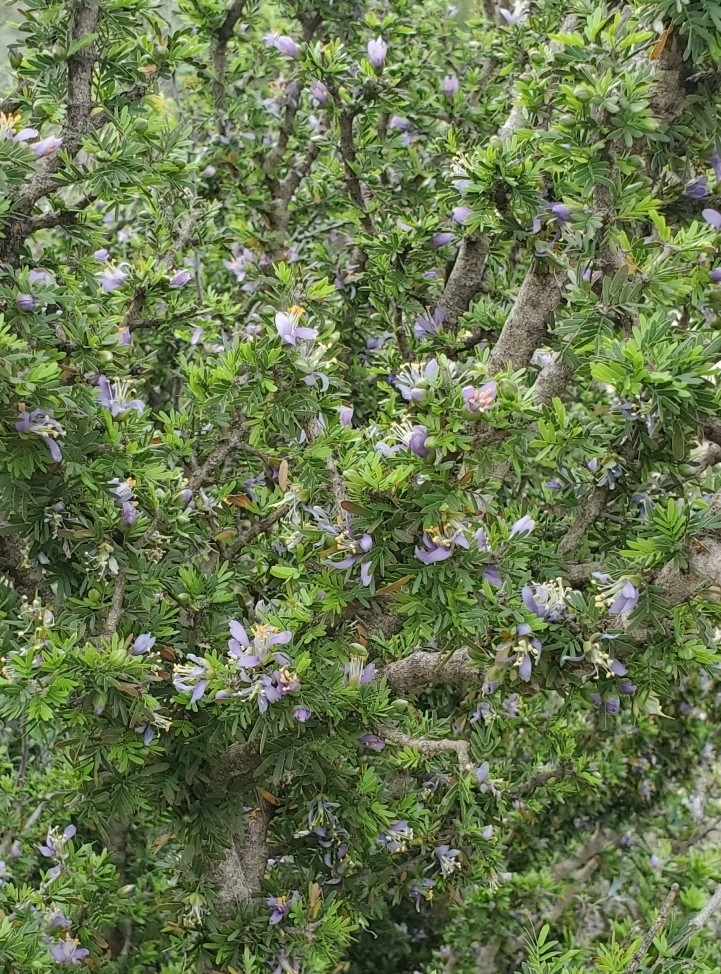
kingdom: Plantae
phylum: Tracheophyta
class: Magnoliopsida
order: Zygophyllales
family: Zygophyllaceae
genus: Porlieria
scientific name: Porlieria angustifolia
